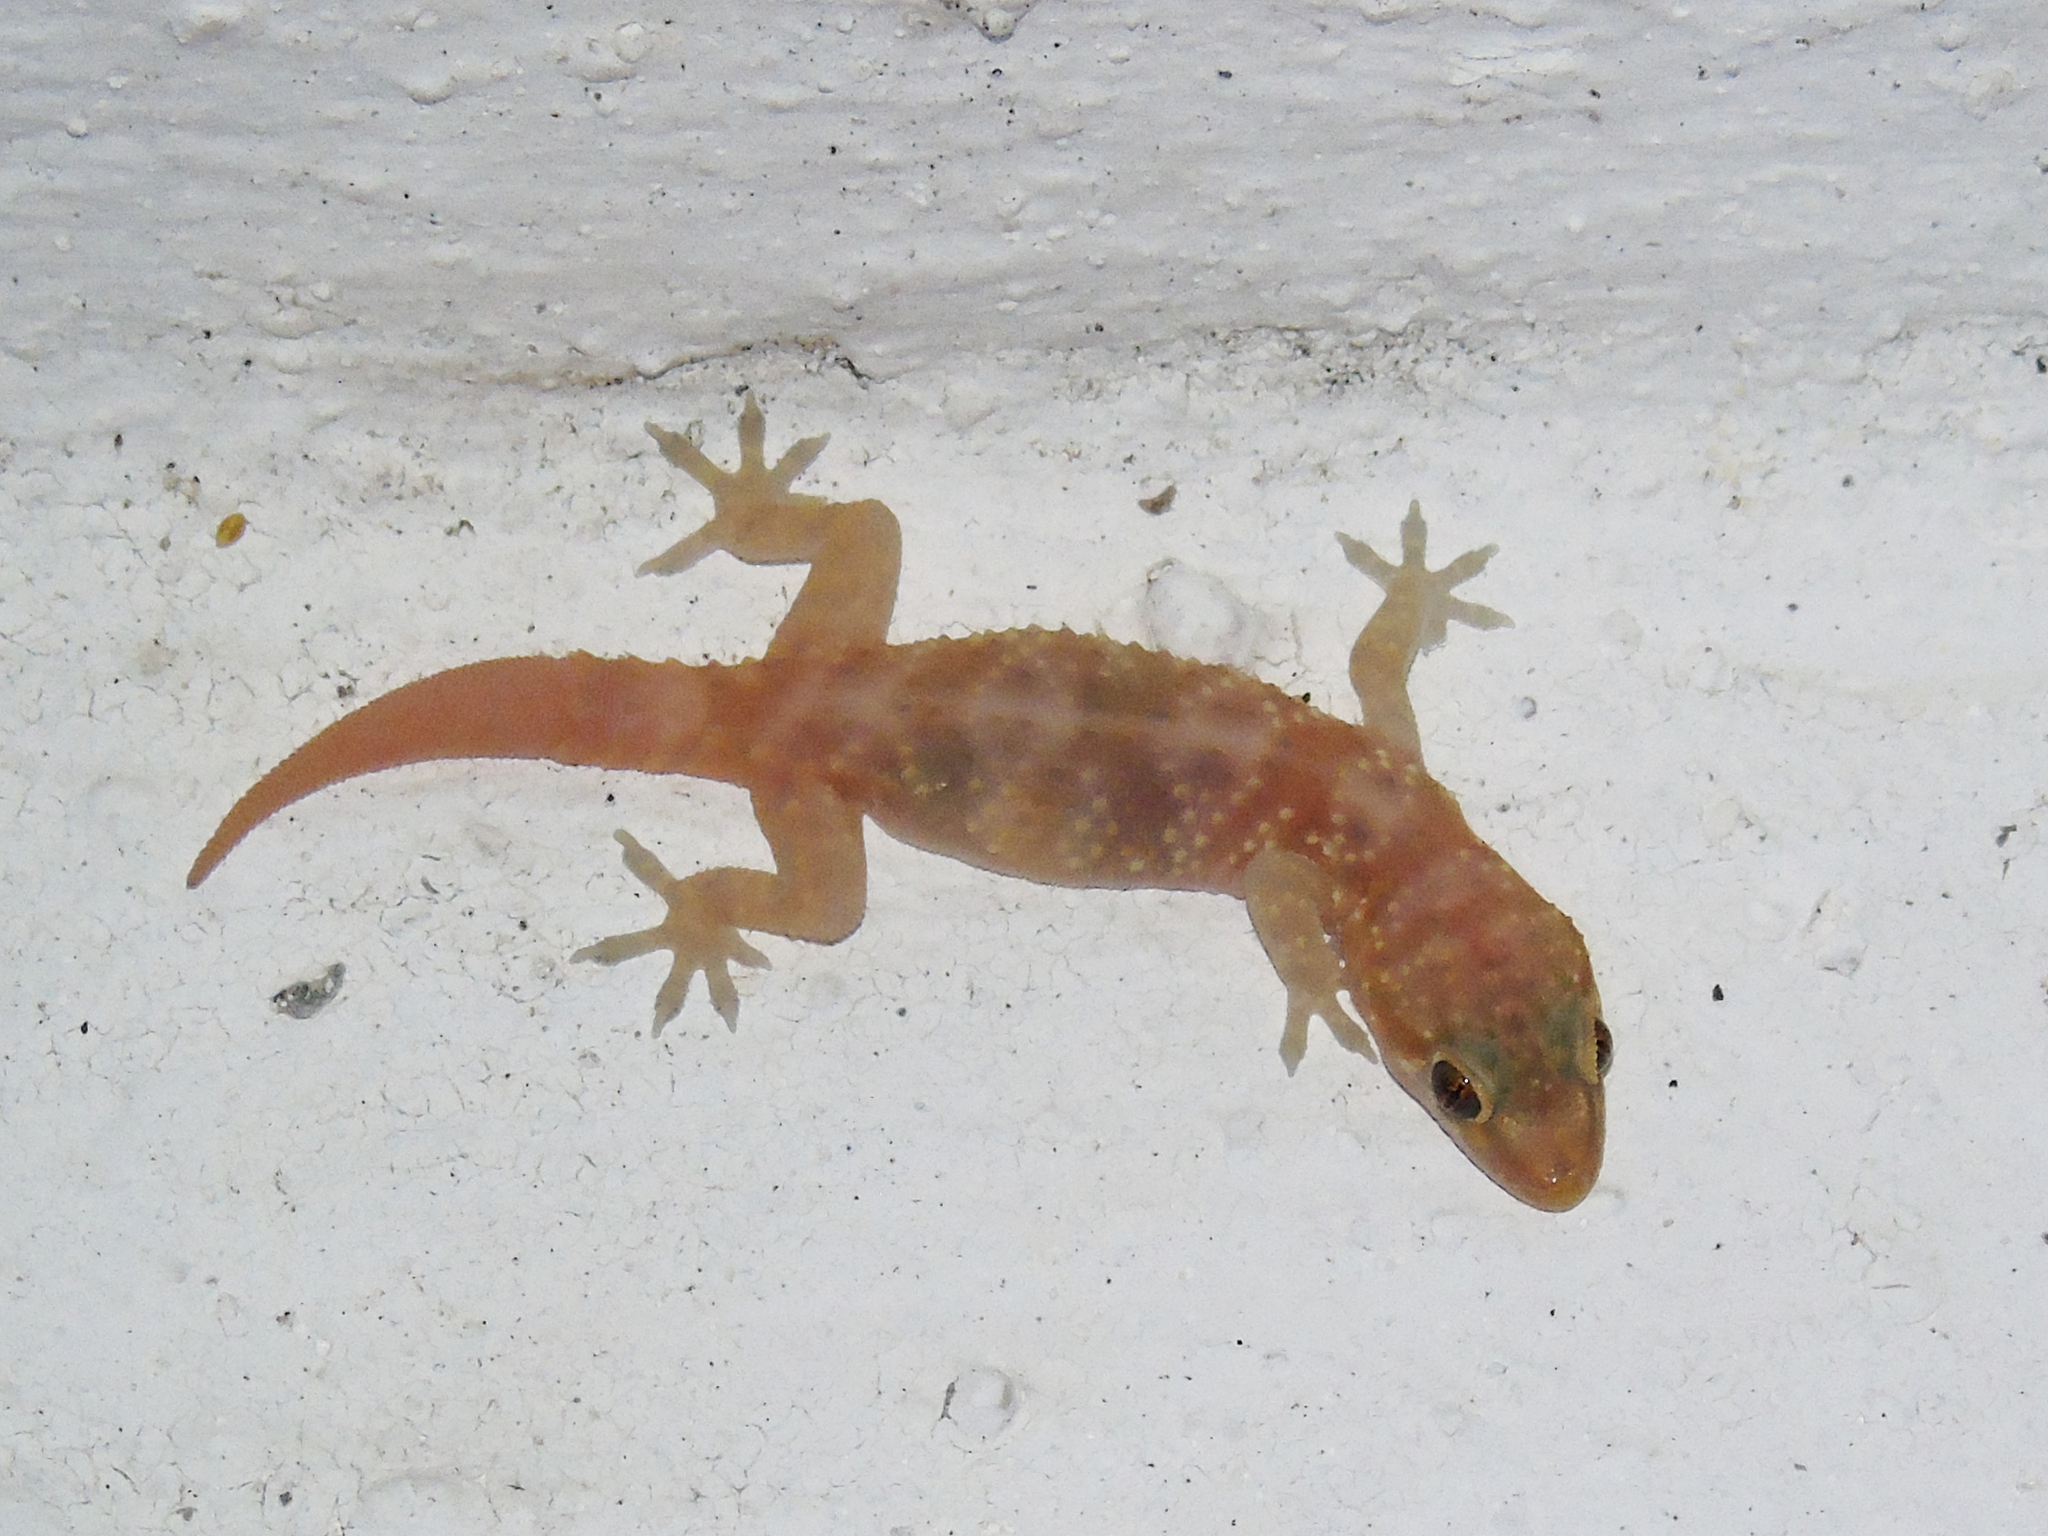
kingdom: Animalia
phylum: Chordata
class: Squamata
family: Gekkonidae
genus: Hemidactylus
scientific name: Hemidactylus turcicus
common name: Turkish gecko
